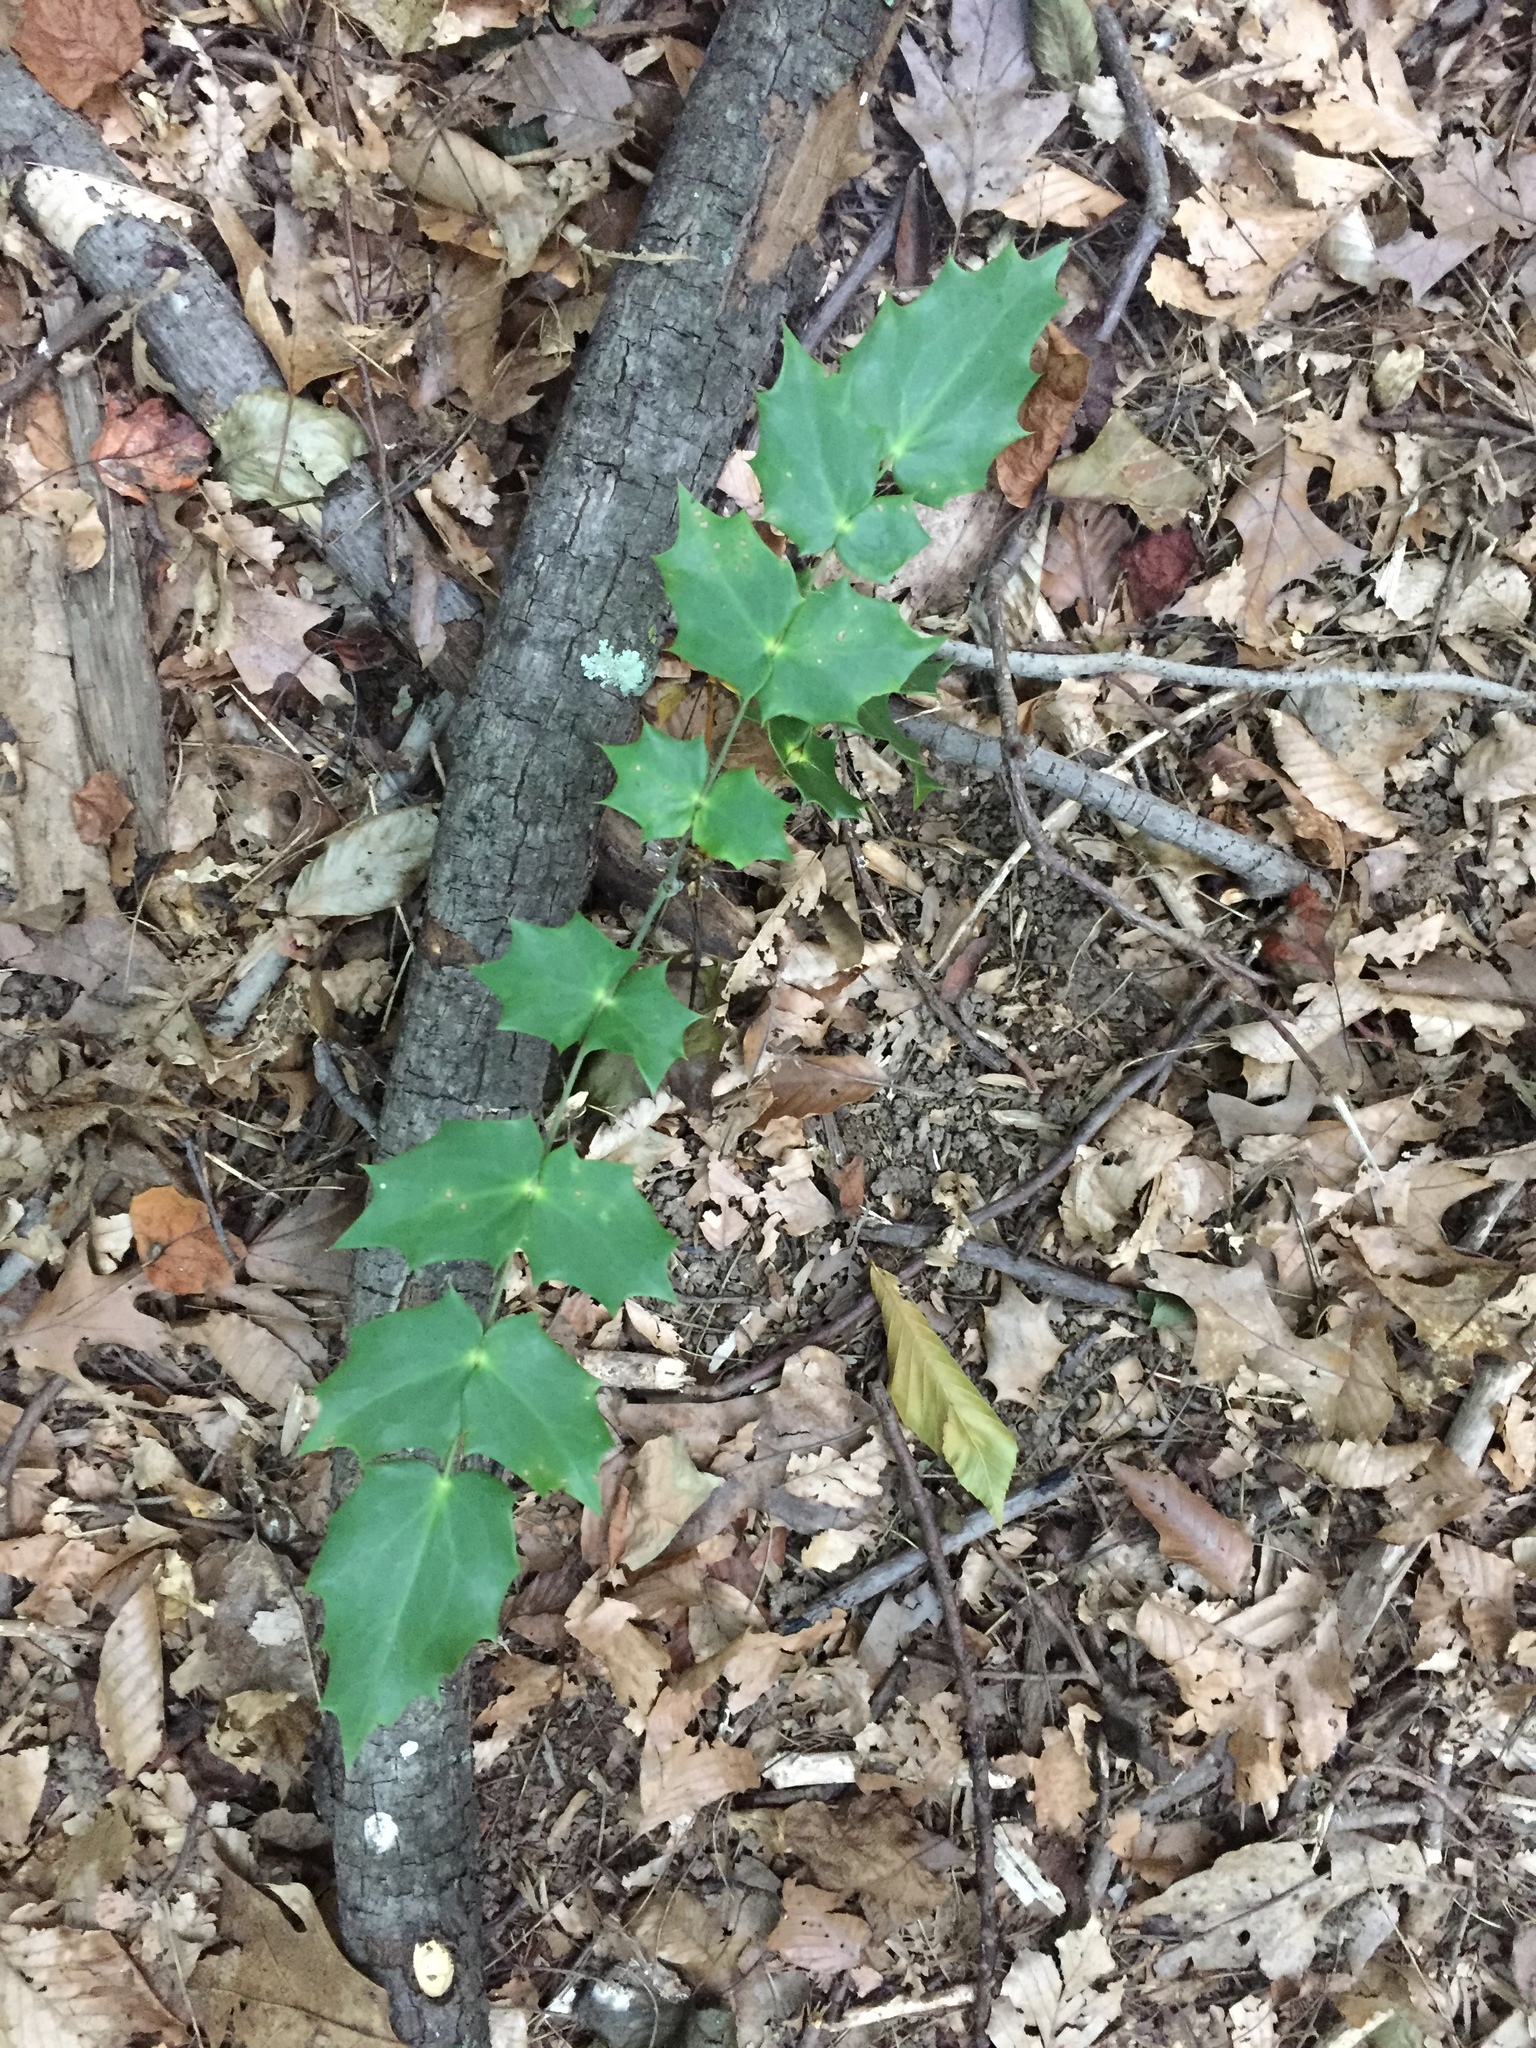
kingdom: Plantae
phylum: Tracheophyta
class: Magnoliopsida
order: Ranunculales
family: Berberidaceae
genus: Mahonia
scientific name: Mahonia bealei
